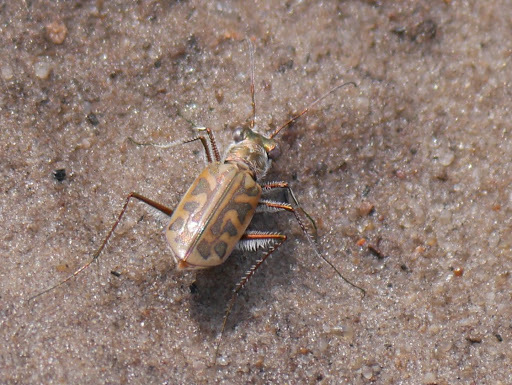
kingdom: Animalia
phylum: Arthropoda
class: Insecta
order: Coleoptera
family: Carabidae
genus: Habrodera
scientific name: Habrodera nilotica
